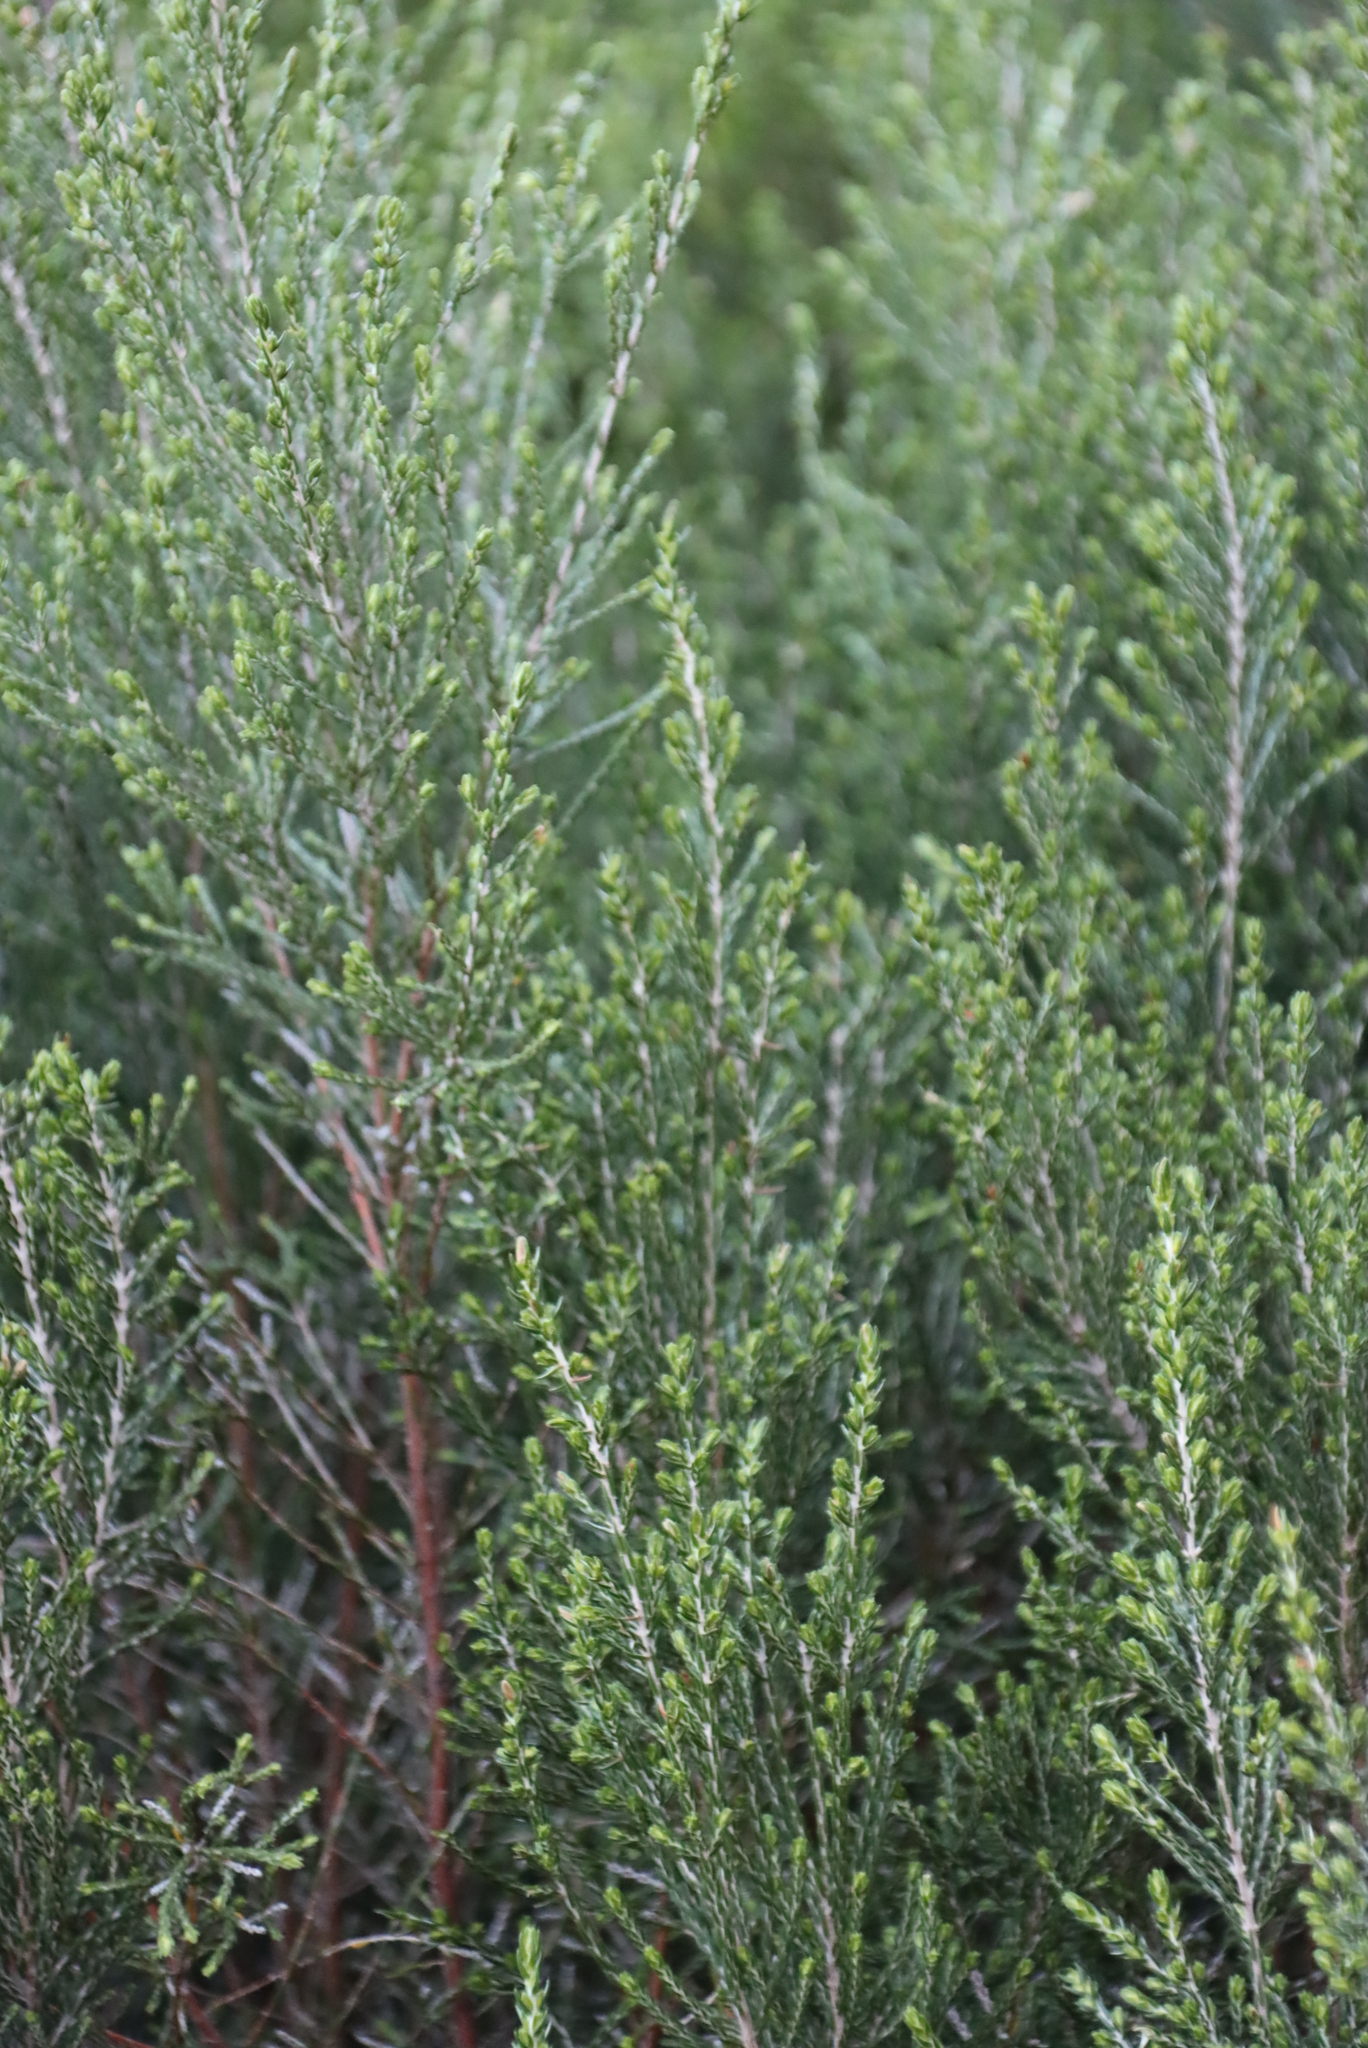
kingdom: Plantae
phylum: Tracheophyta
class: Magnoliopsida
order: Malvales
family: Thymelaeaceae
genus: Passerina
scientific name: Passerina corymbosa
